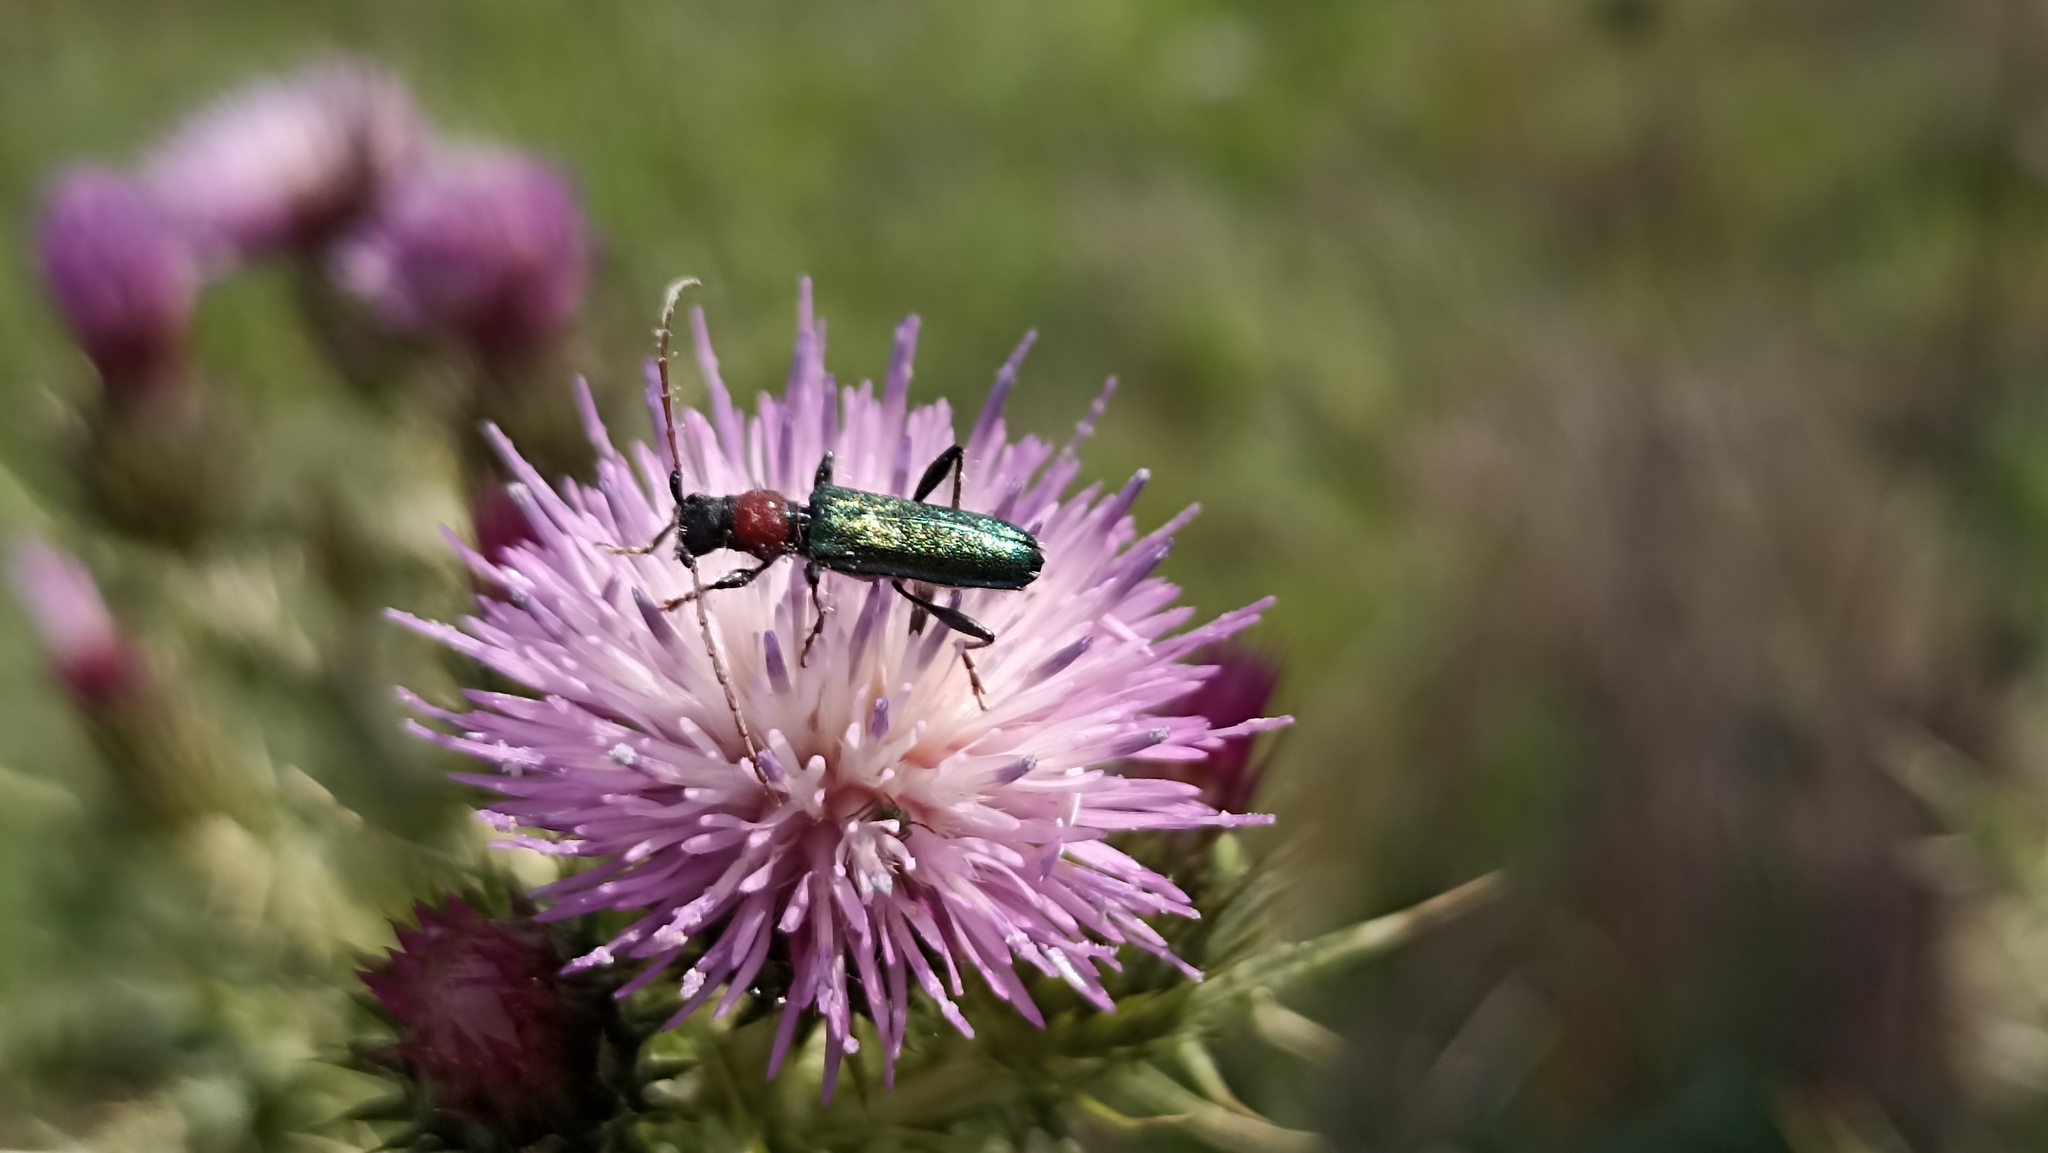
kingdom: Animalia
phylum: Arthropoda
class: Insecta
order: Coleoptera
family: Cerambycidae
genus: Certallum
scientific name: Certallum ebulinum
